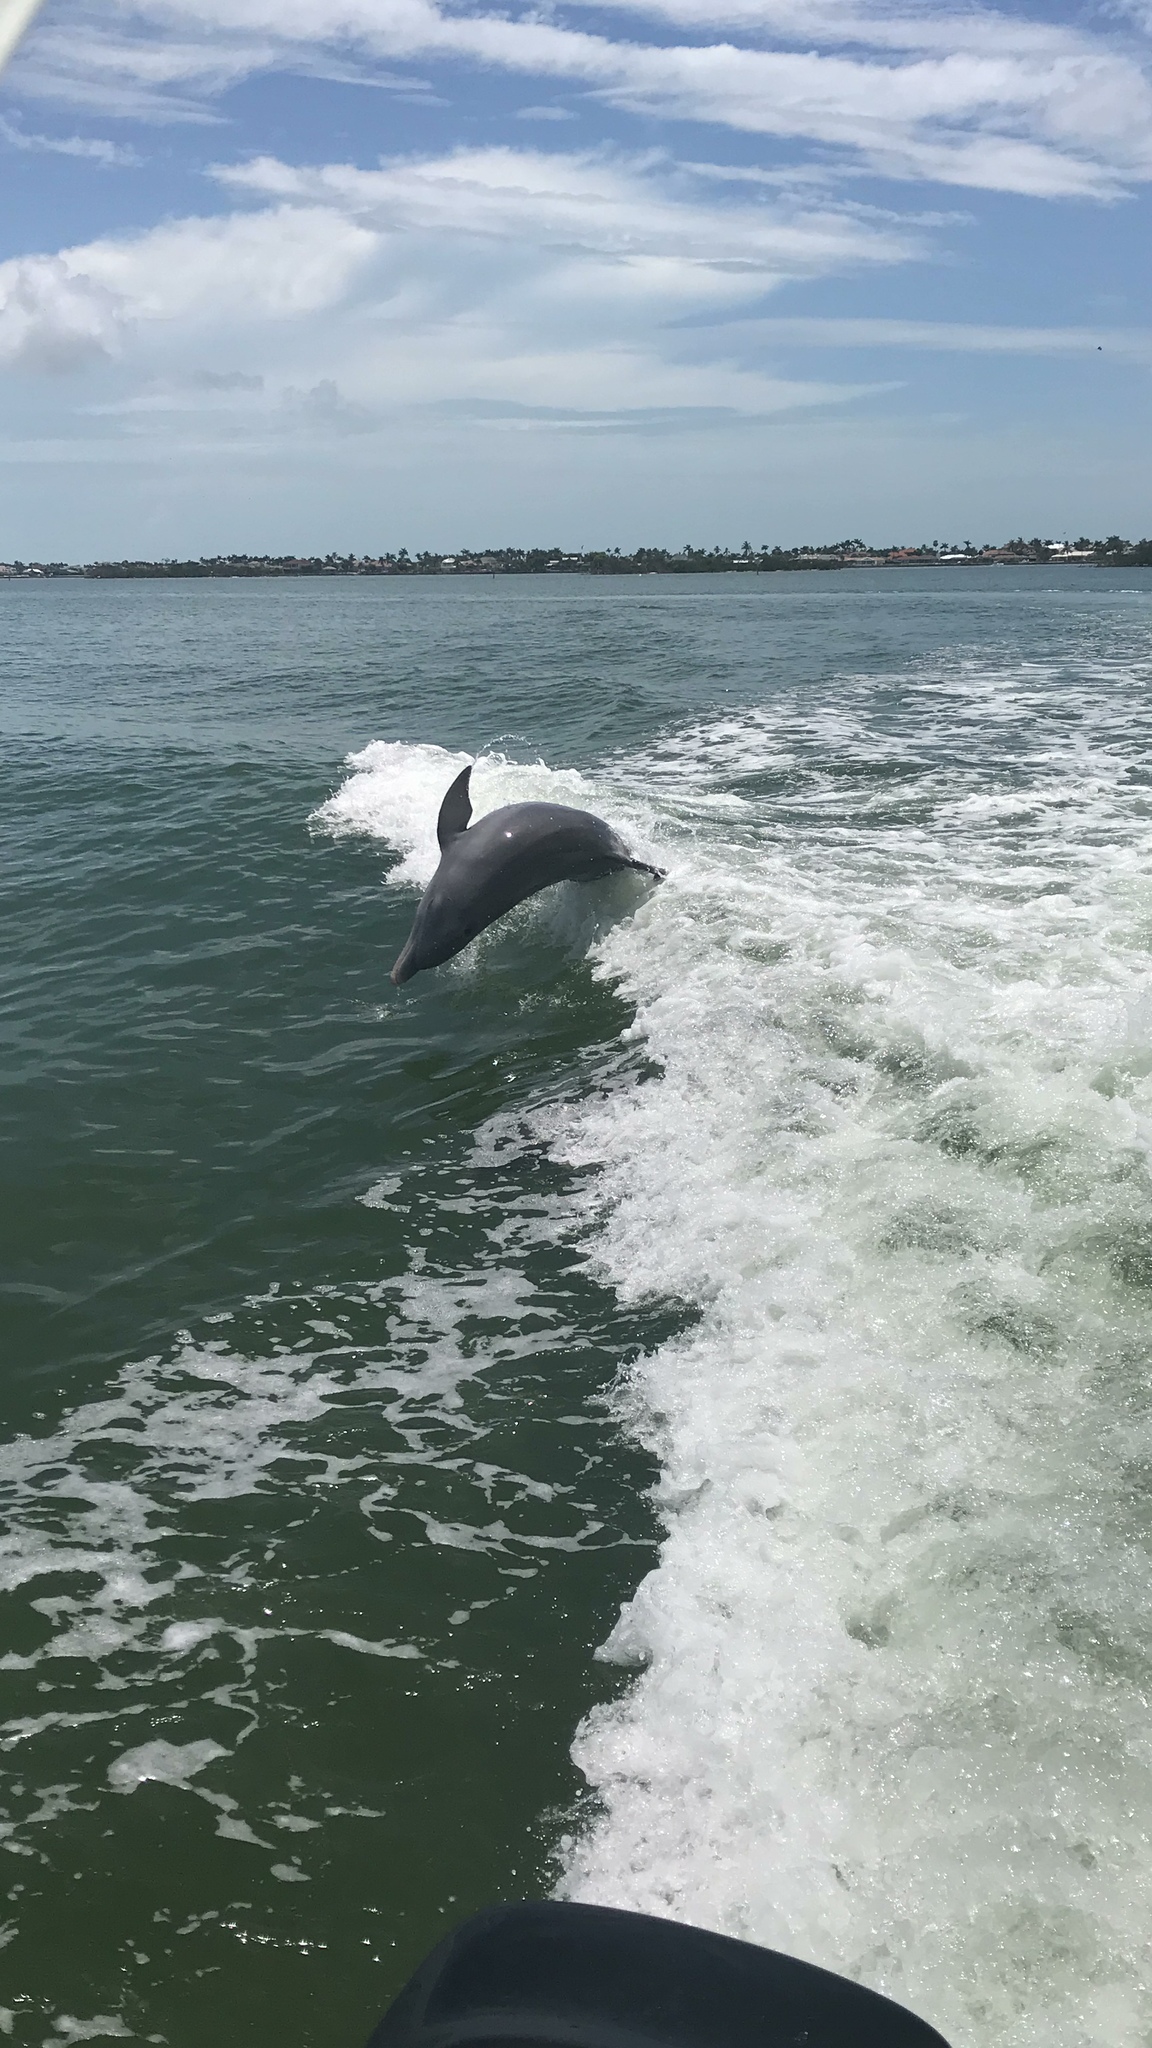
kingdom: Animalia
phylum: Chordata
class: Mammalia
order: Cetacea
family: Delphinidae
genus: Tursiops
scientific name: Tursiops truncatus
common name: Bottlenose dolphin
